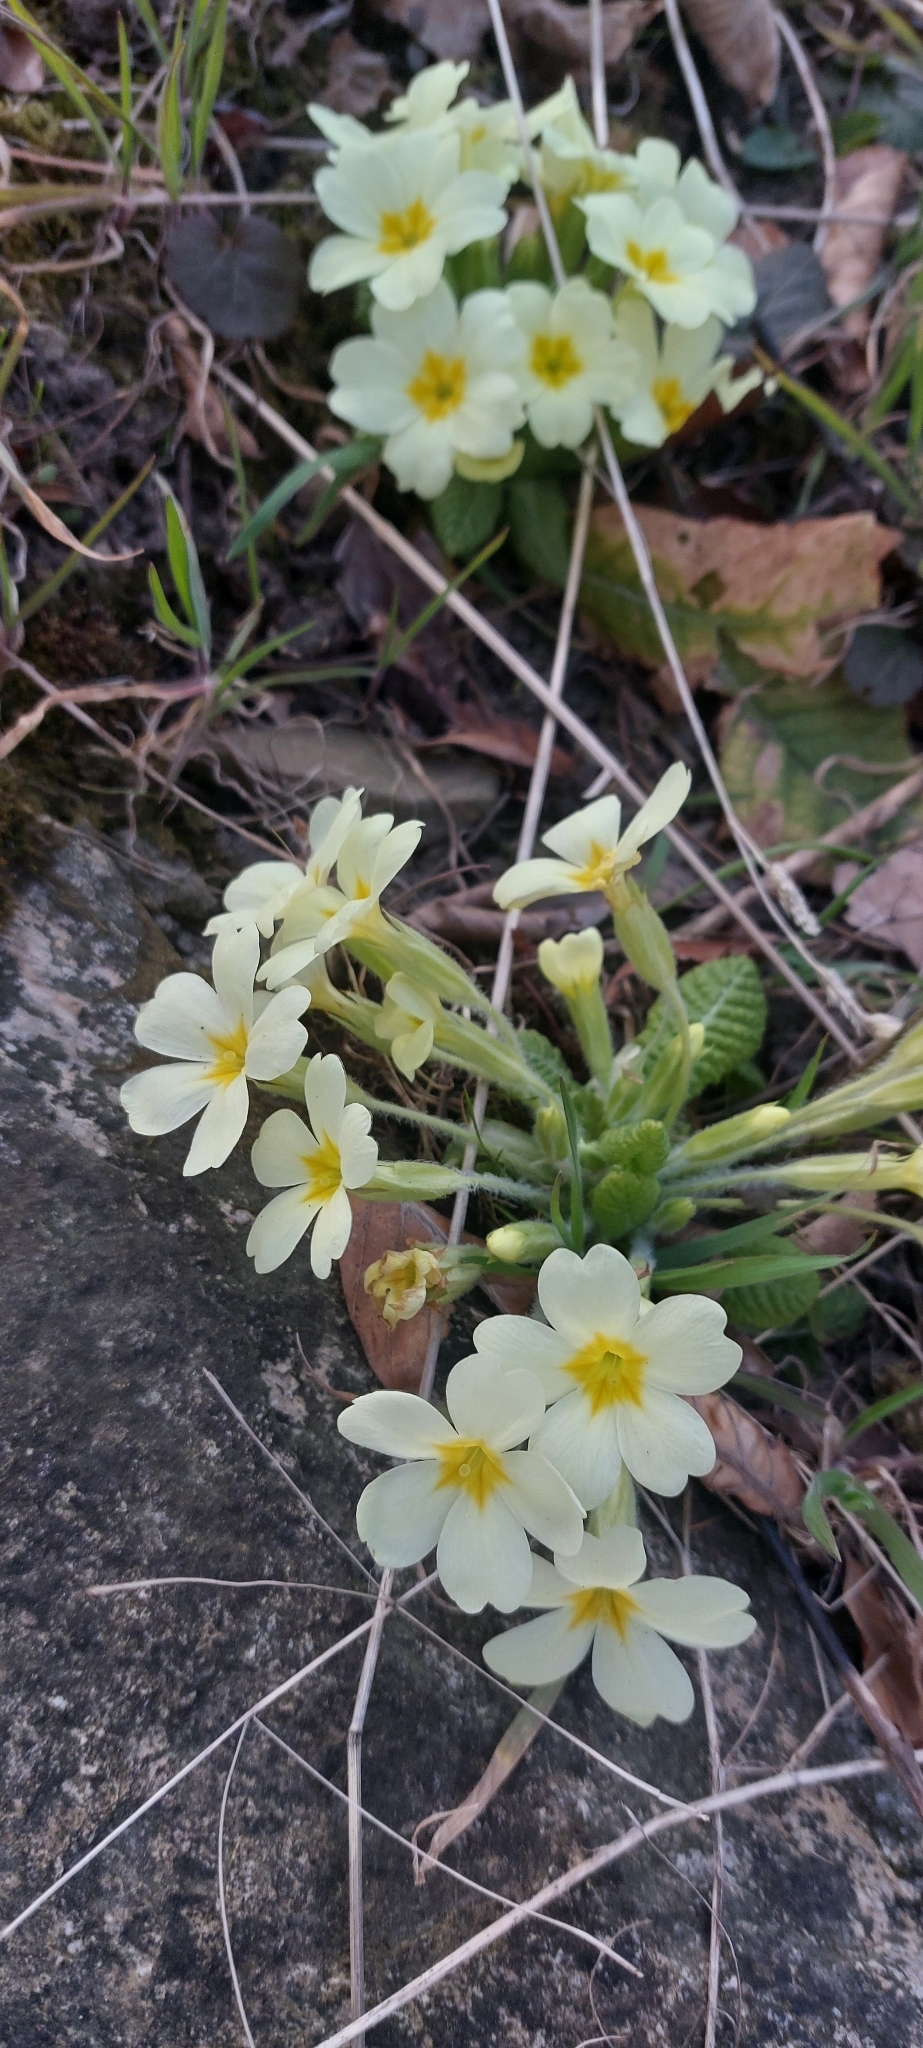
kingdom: Plantae
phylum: Tracheophyta
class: Magnoliopsida
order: Ericales
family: Primulaceae
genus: Primula
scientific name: Primula vulgaris
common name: Primrose
